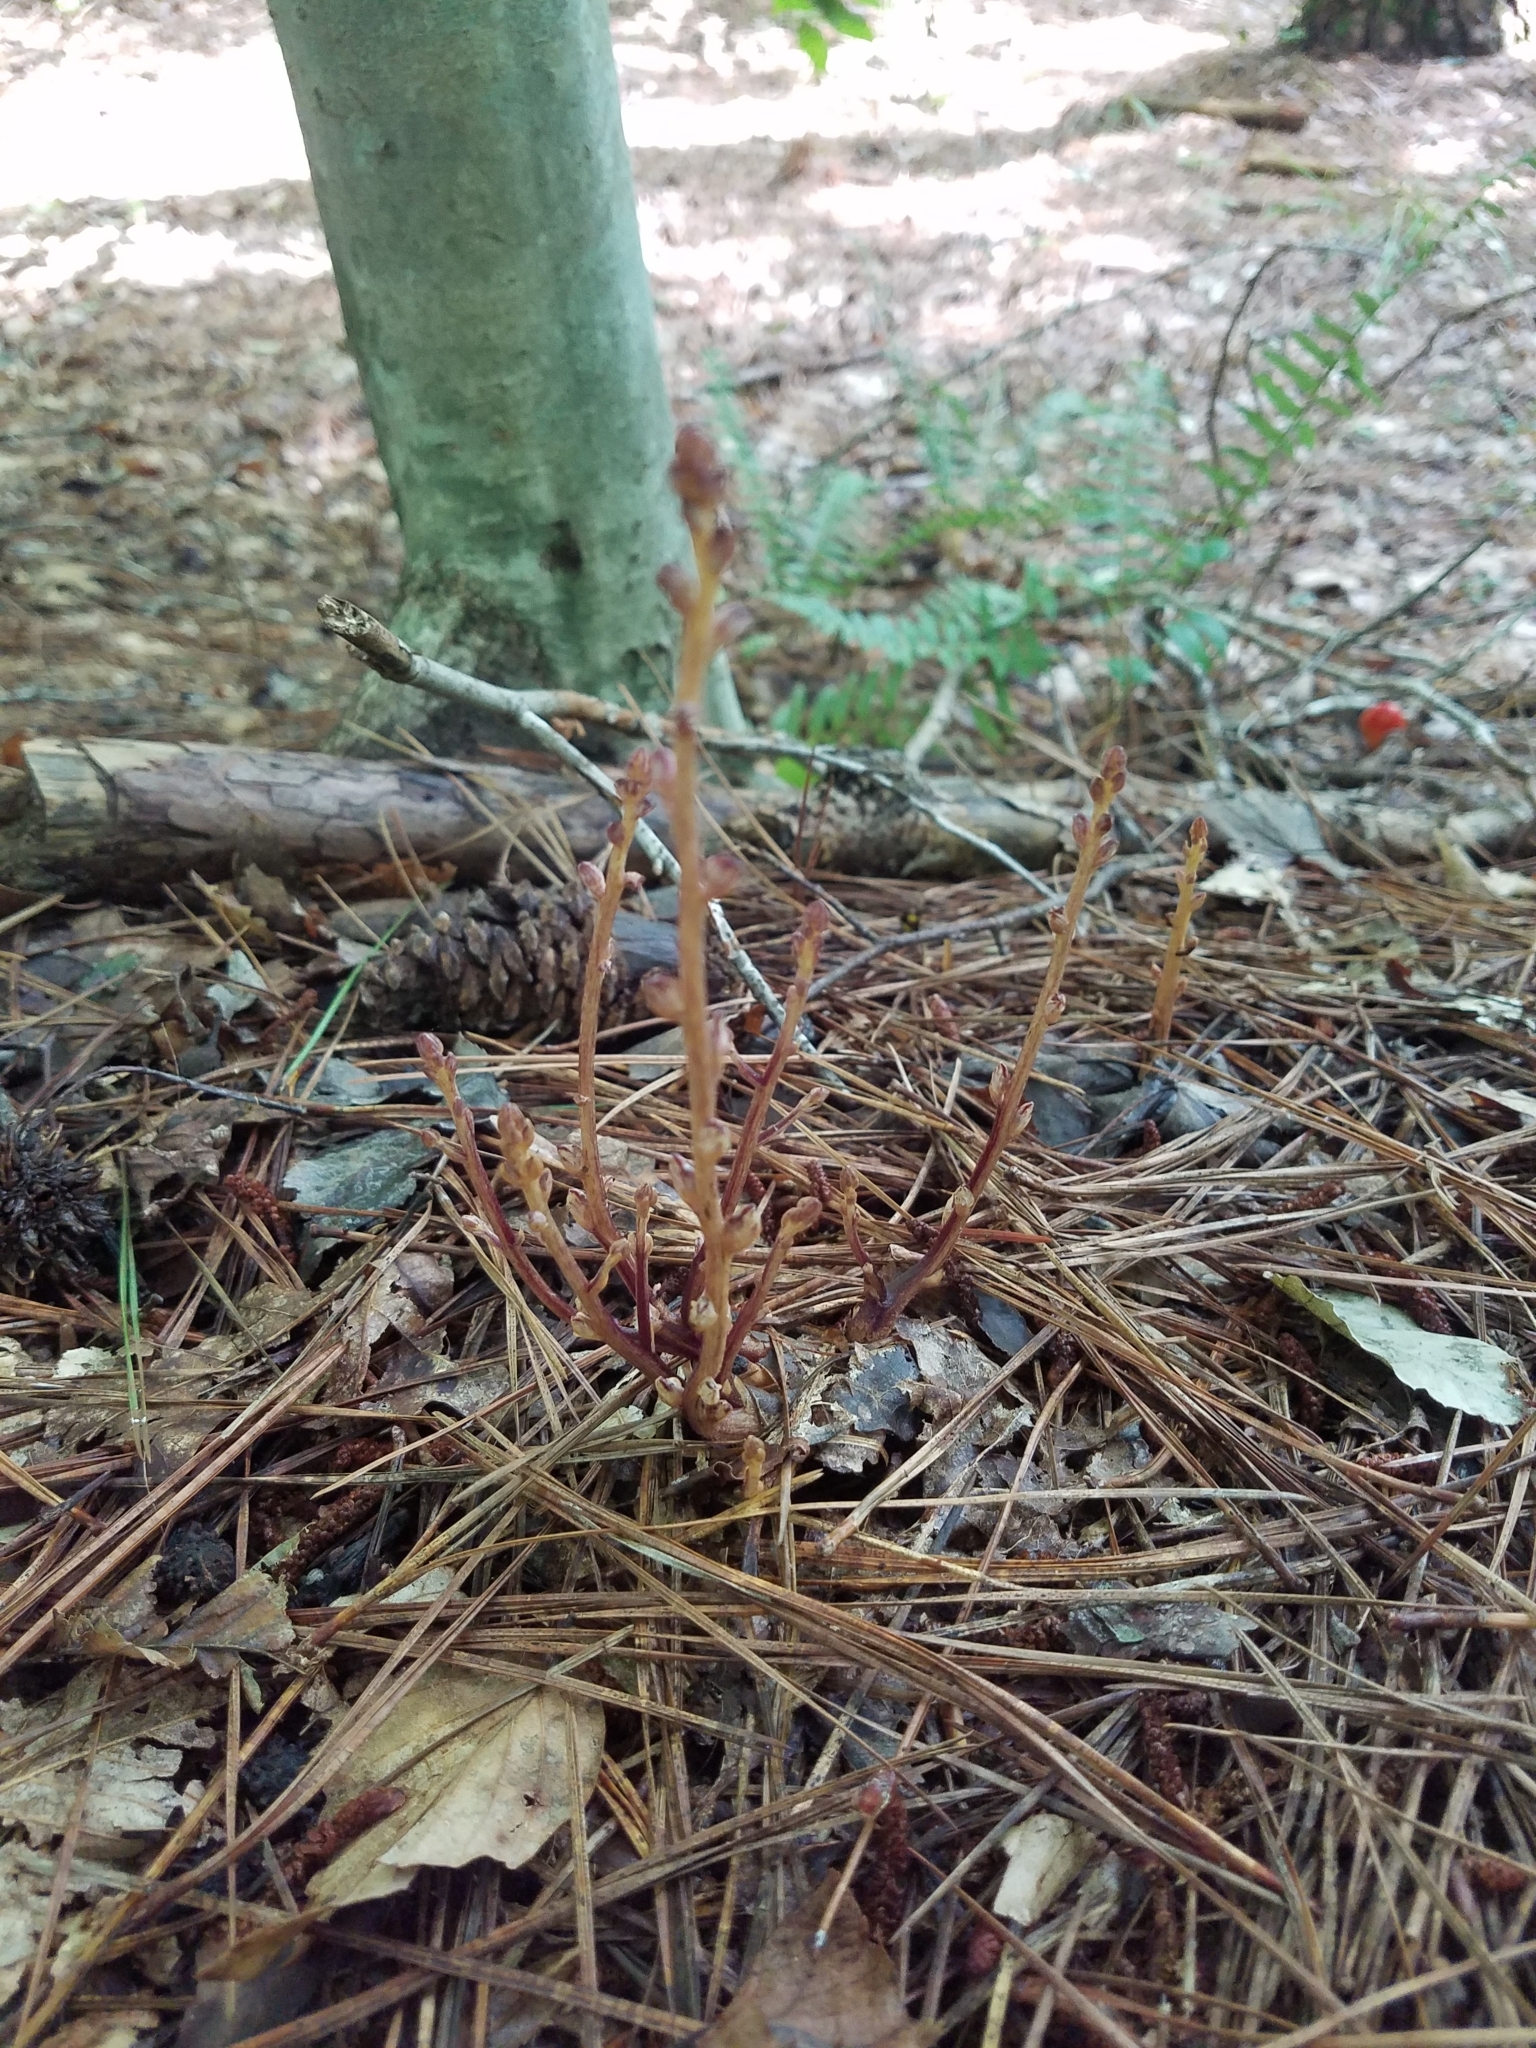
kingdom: Plantae
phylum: Tracheophyta
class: Magnoliopsida
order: Lamiales
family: Orobanchaceae
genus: Epifagus
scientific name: Epifagus virginiana
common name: Beechdrops
